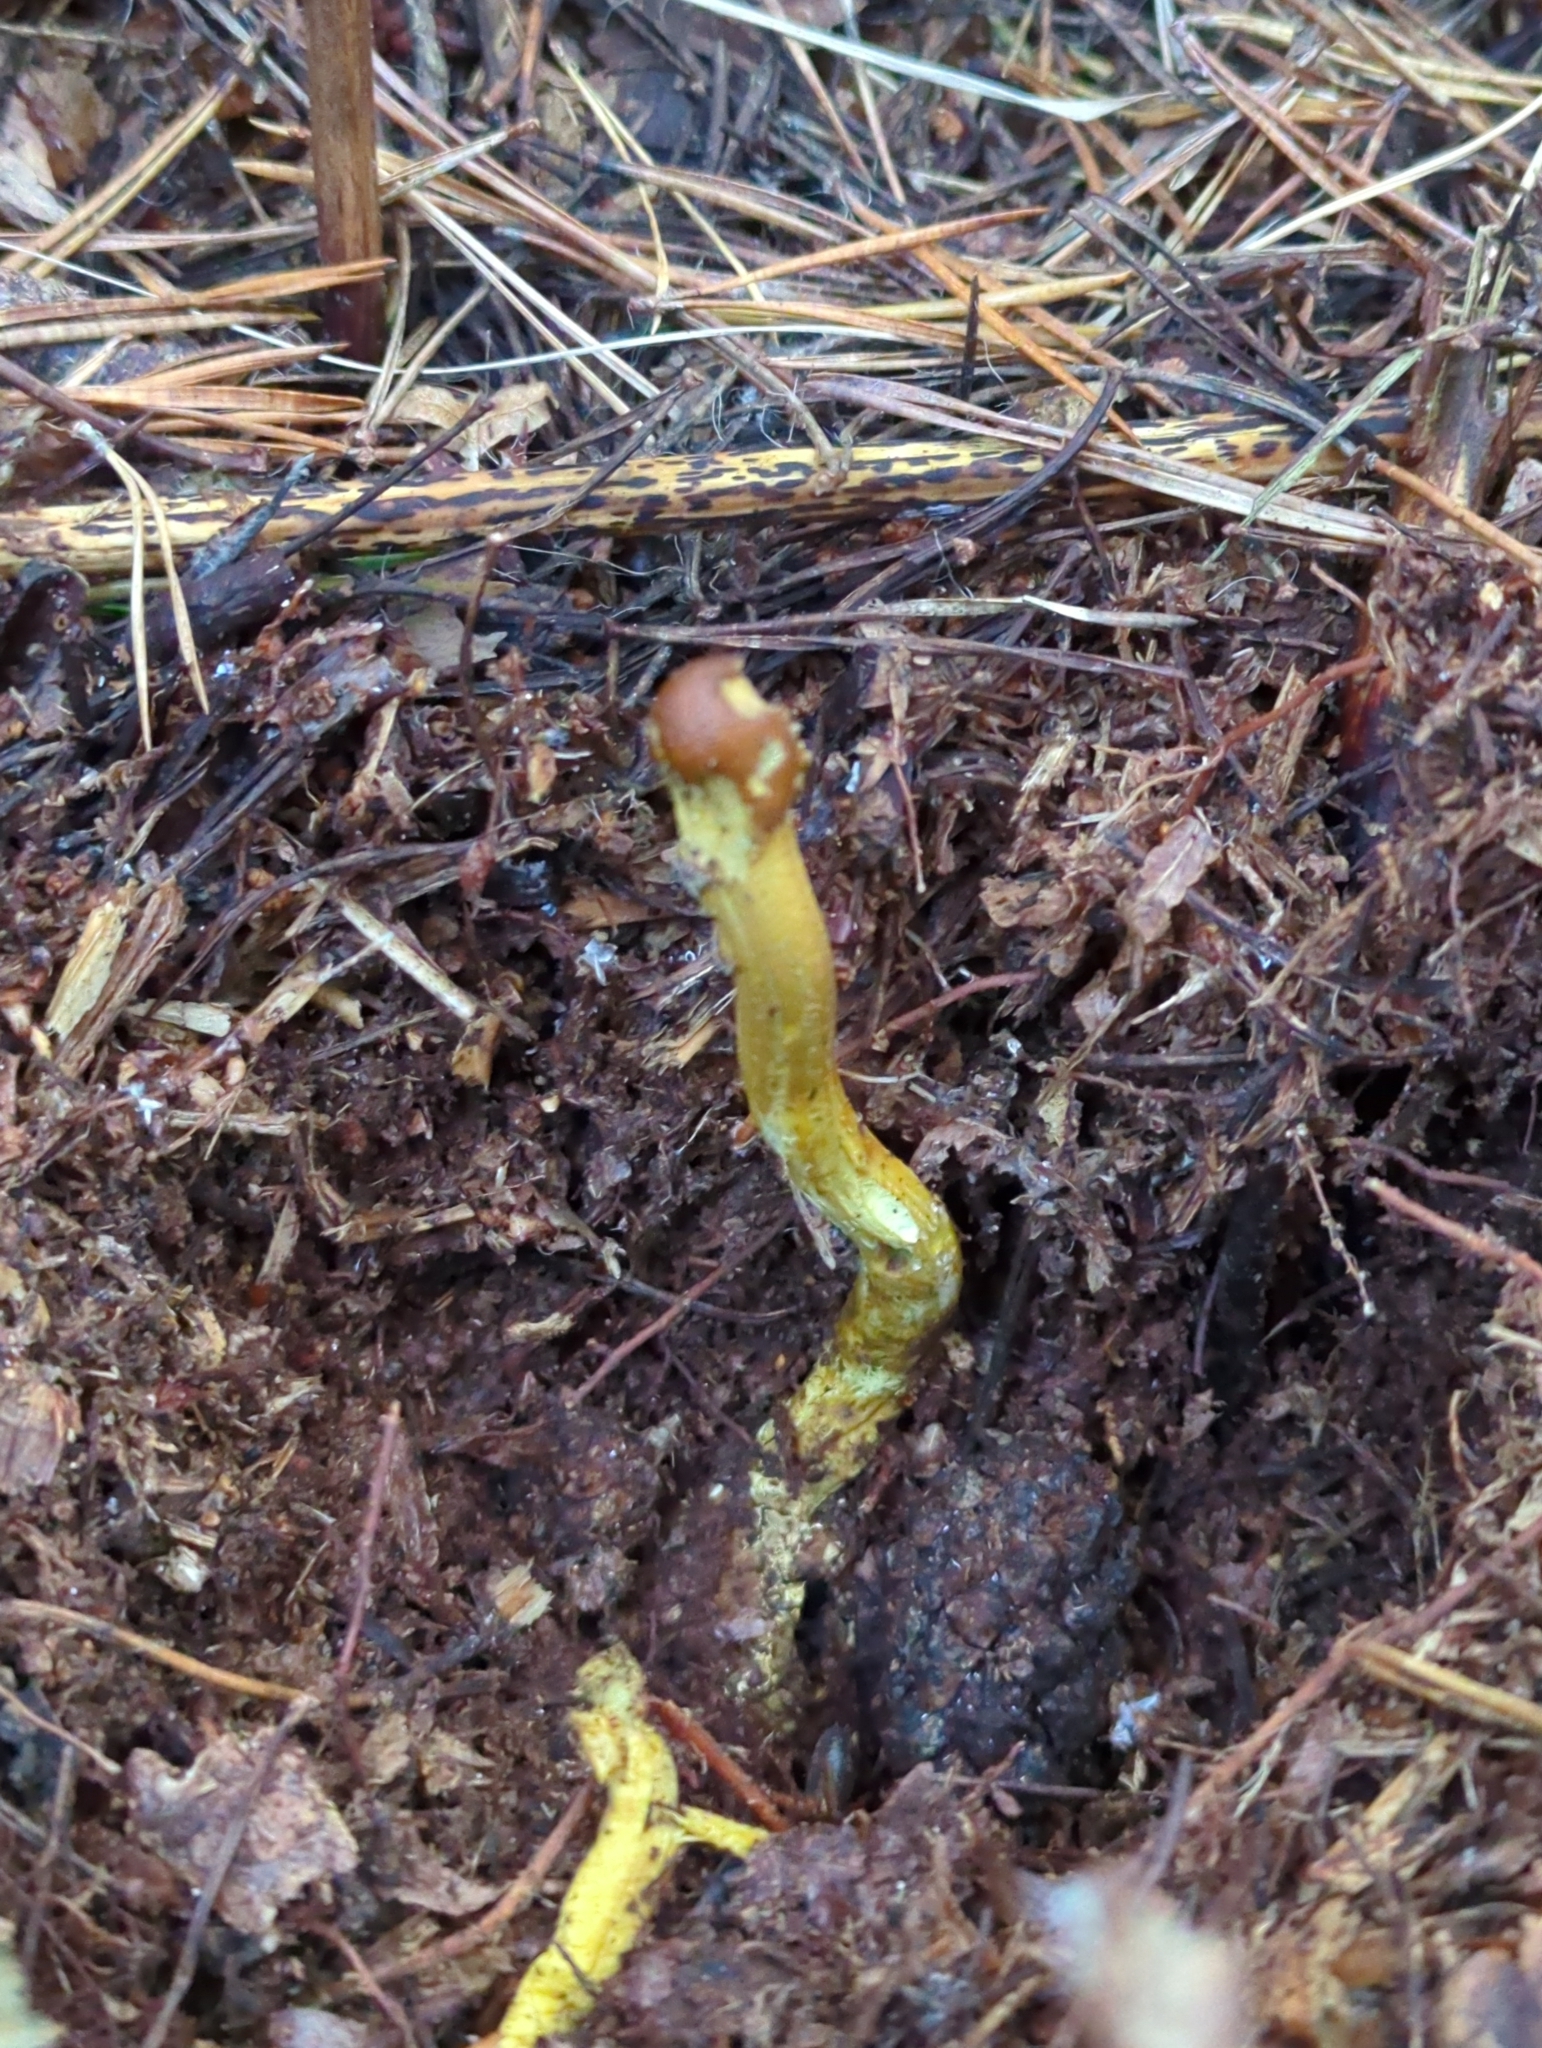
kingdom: Fungi
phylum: Ascomycota
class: Sordariomycetes
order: Hypocreales
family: Ophiocordycipitaceae
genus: Tolypocladium
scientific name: Tolypocladium capitatum
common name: Capitate truffleclub
